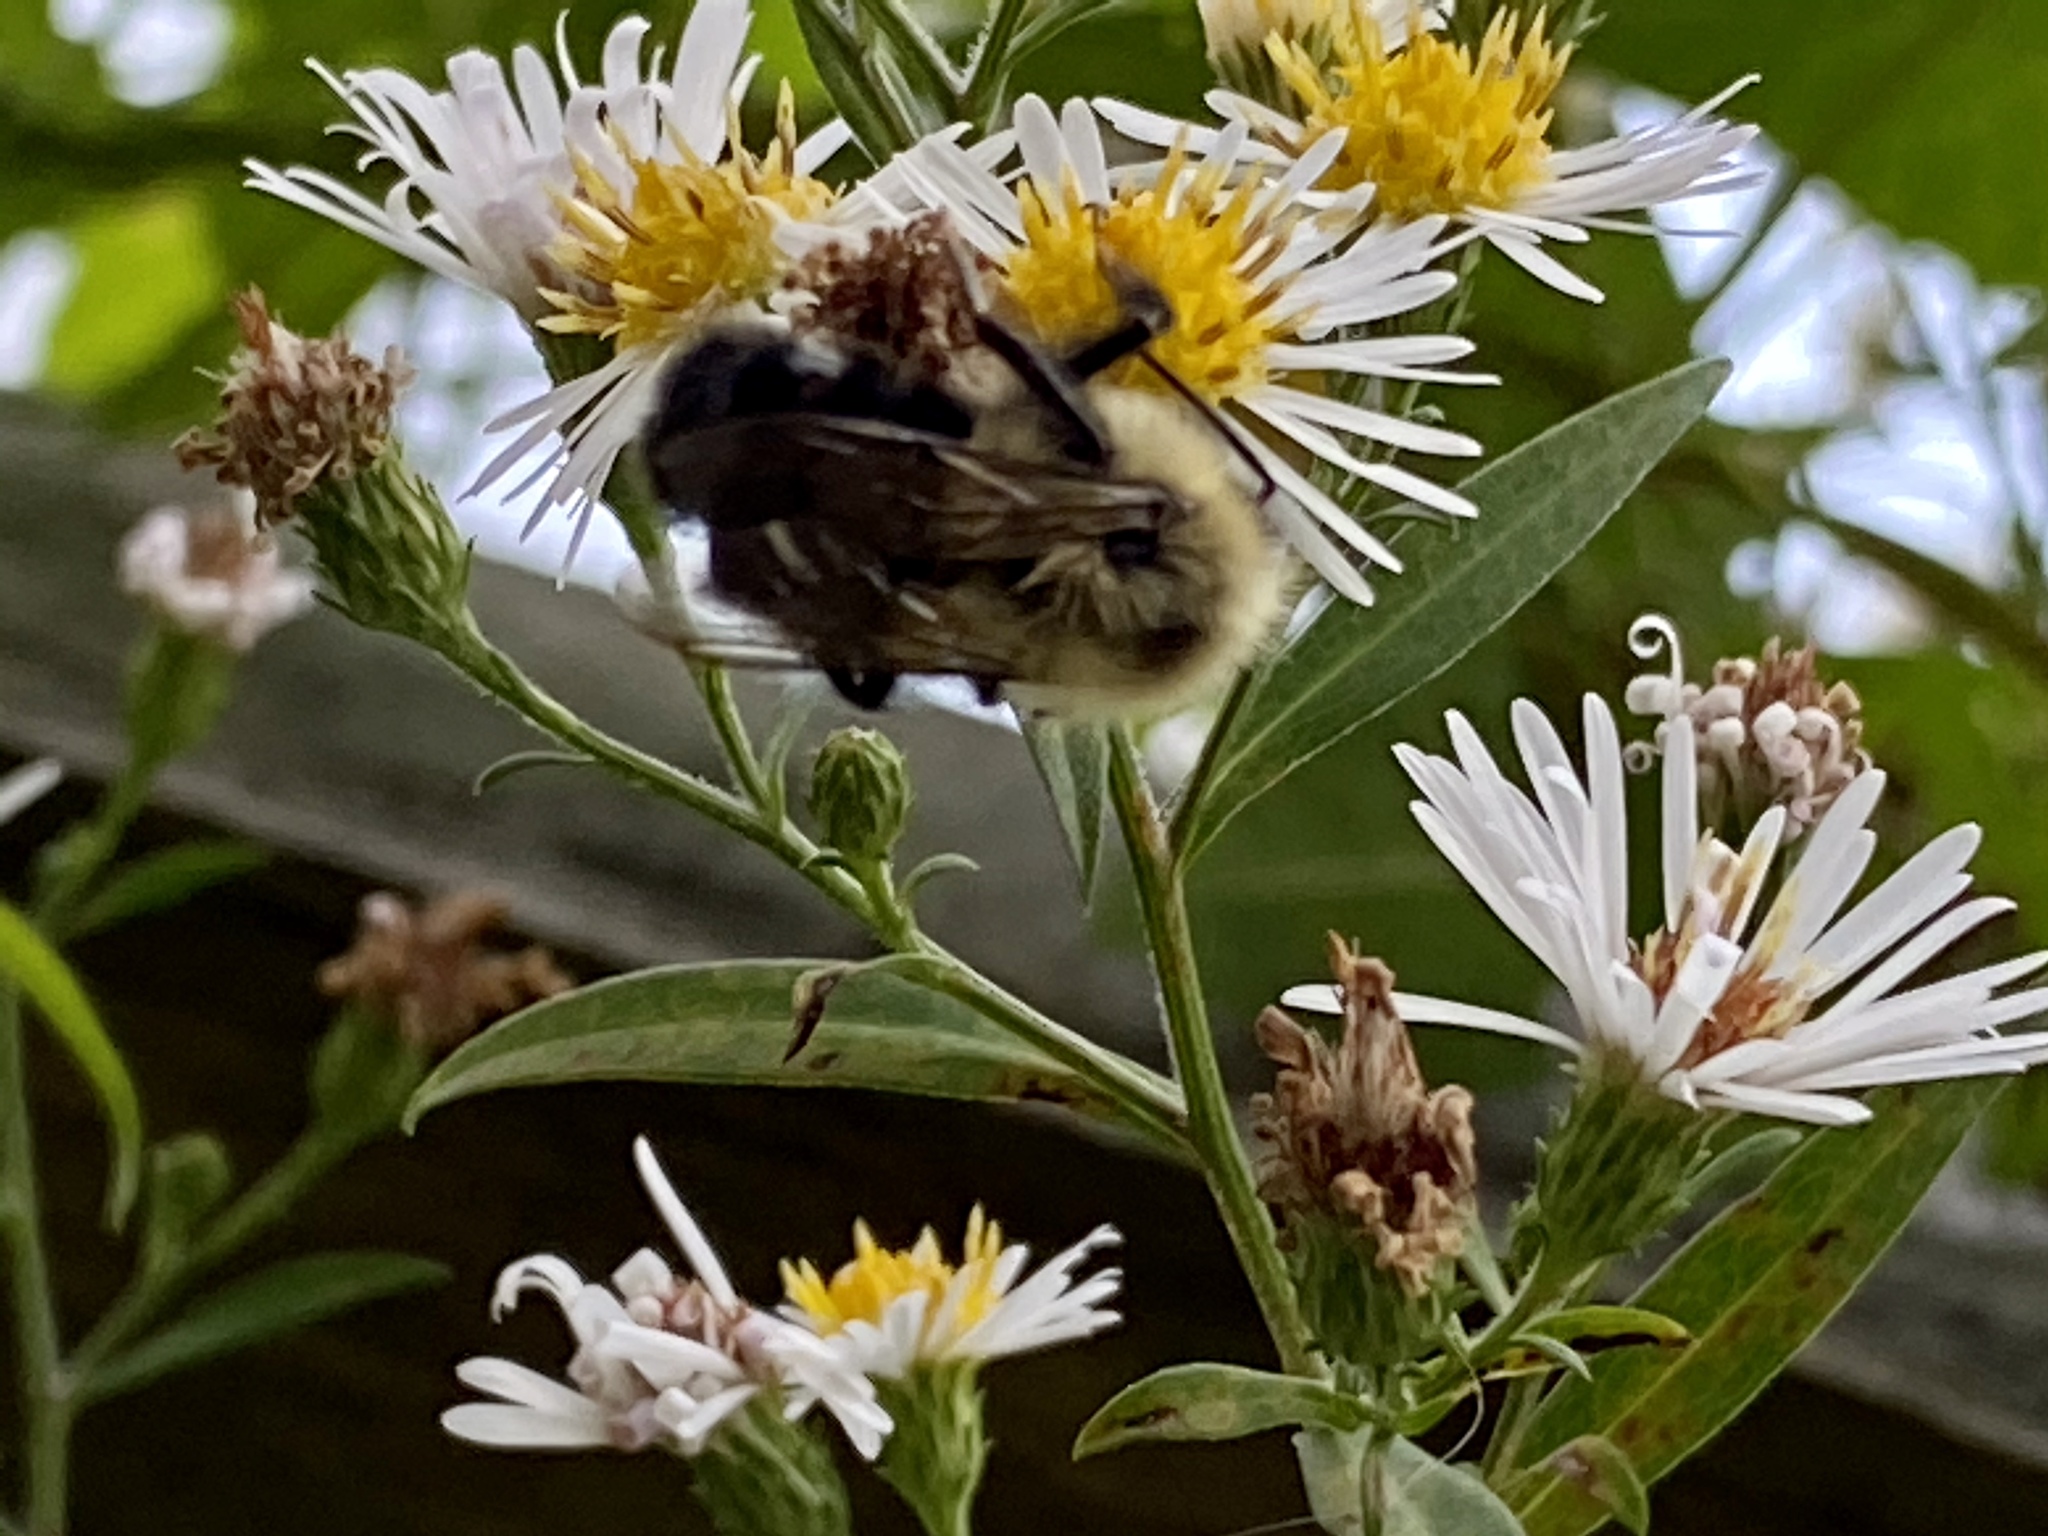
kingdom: Animalia
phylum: Arthropoda
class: Insecta
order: Hymenoptera
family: Apidae
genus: Bombus
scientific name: Bombus impatiens
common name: Common eastern bumble bee
